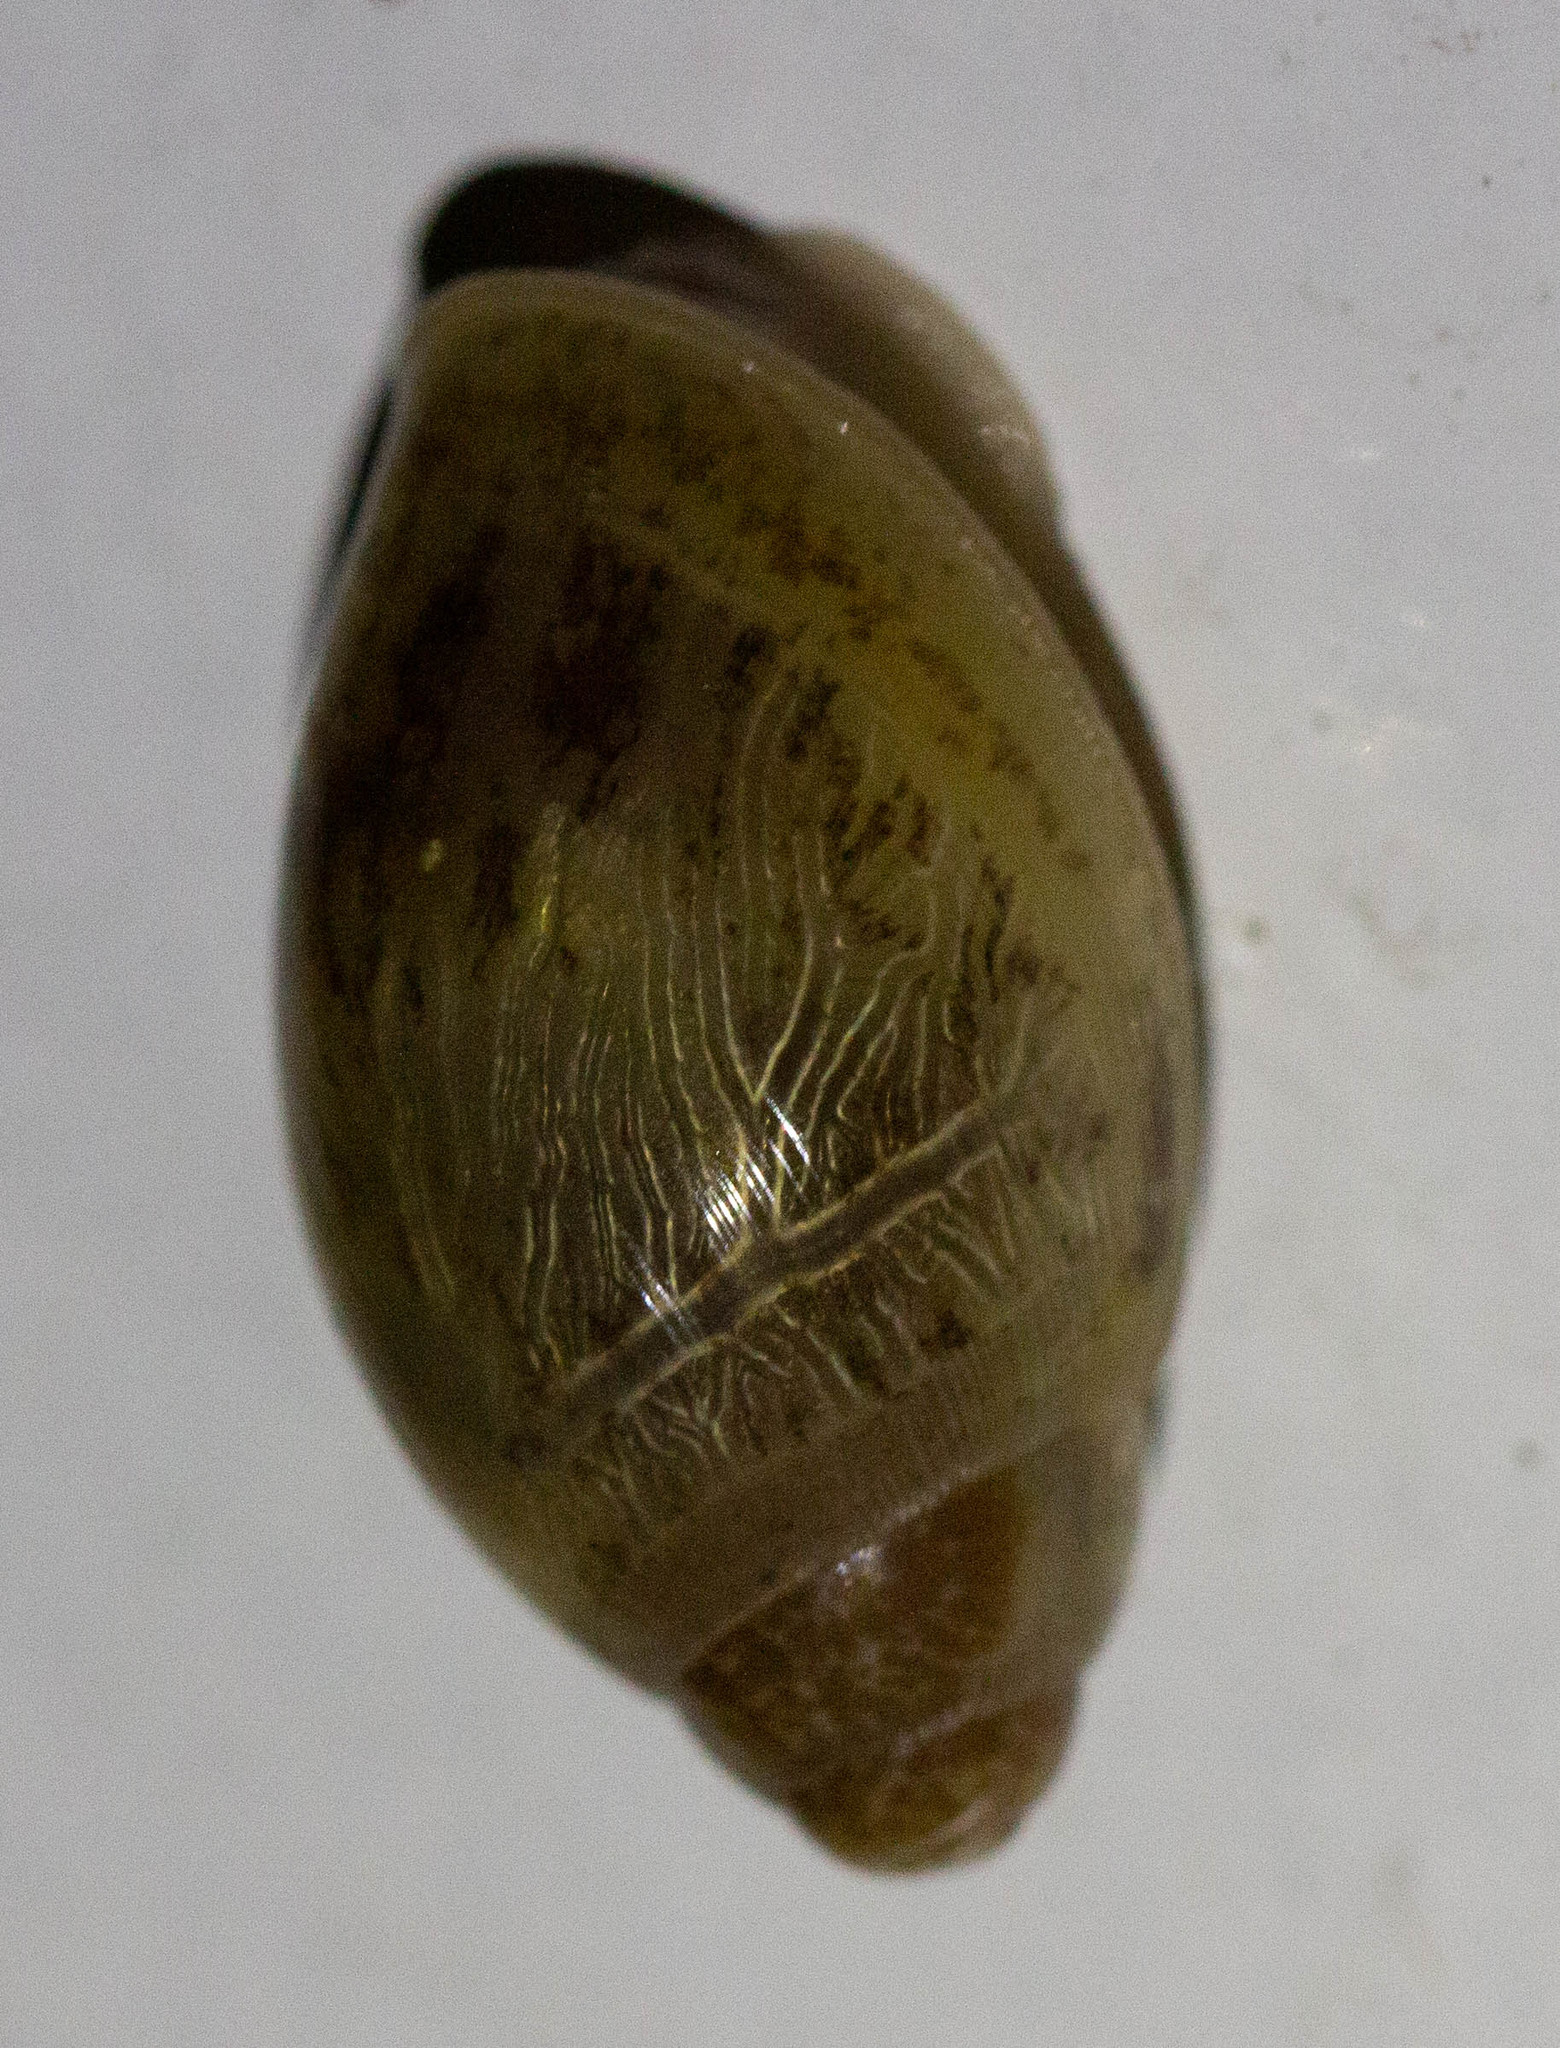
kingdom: Animalia
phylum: Mollusca
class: Gastropoda
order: Stylommatophora
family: Spiraxidae
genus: Euglandina
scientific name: Euglandina rosea
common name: Rosy wolfsnail
